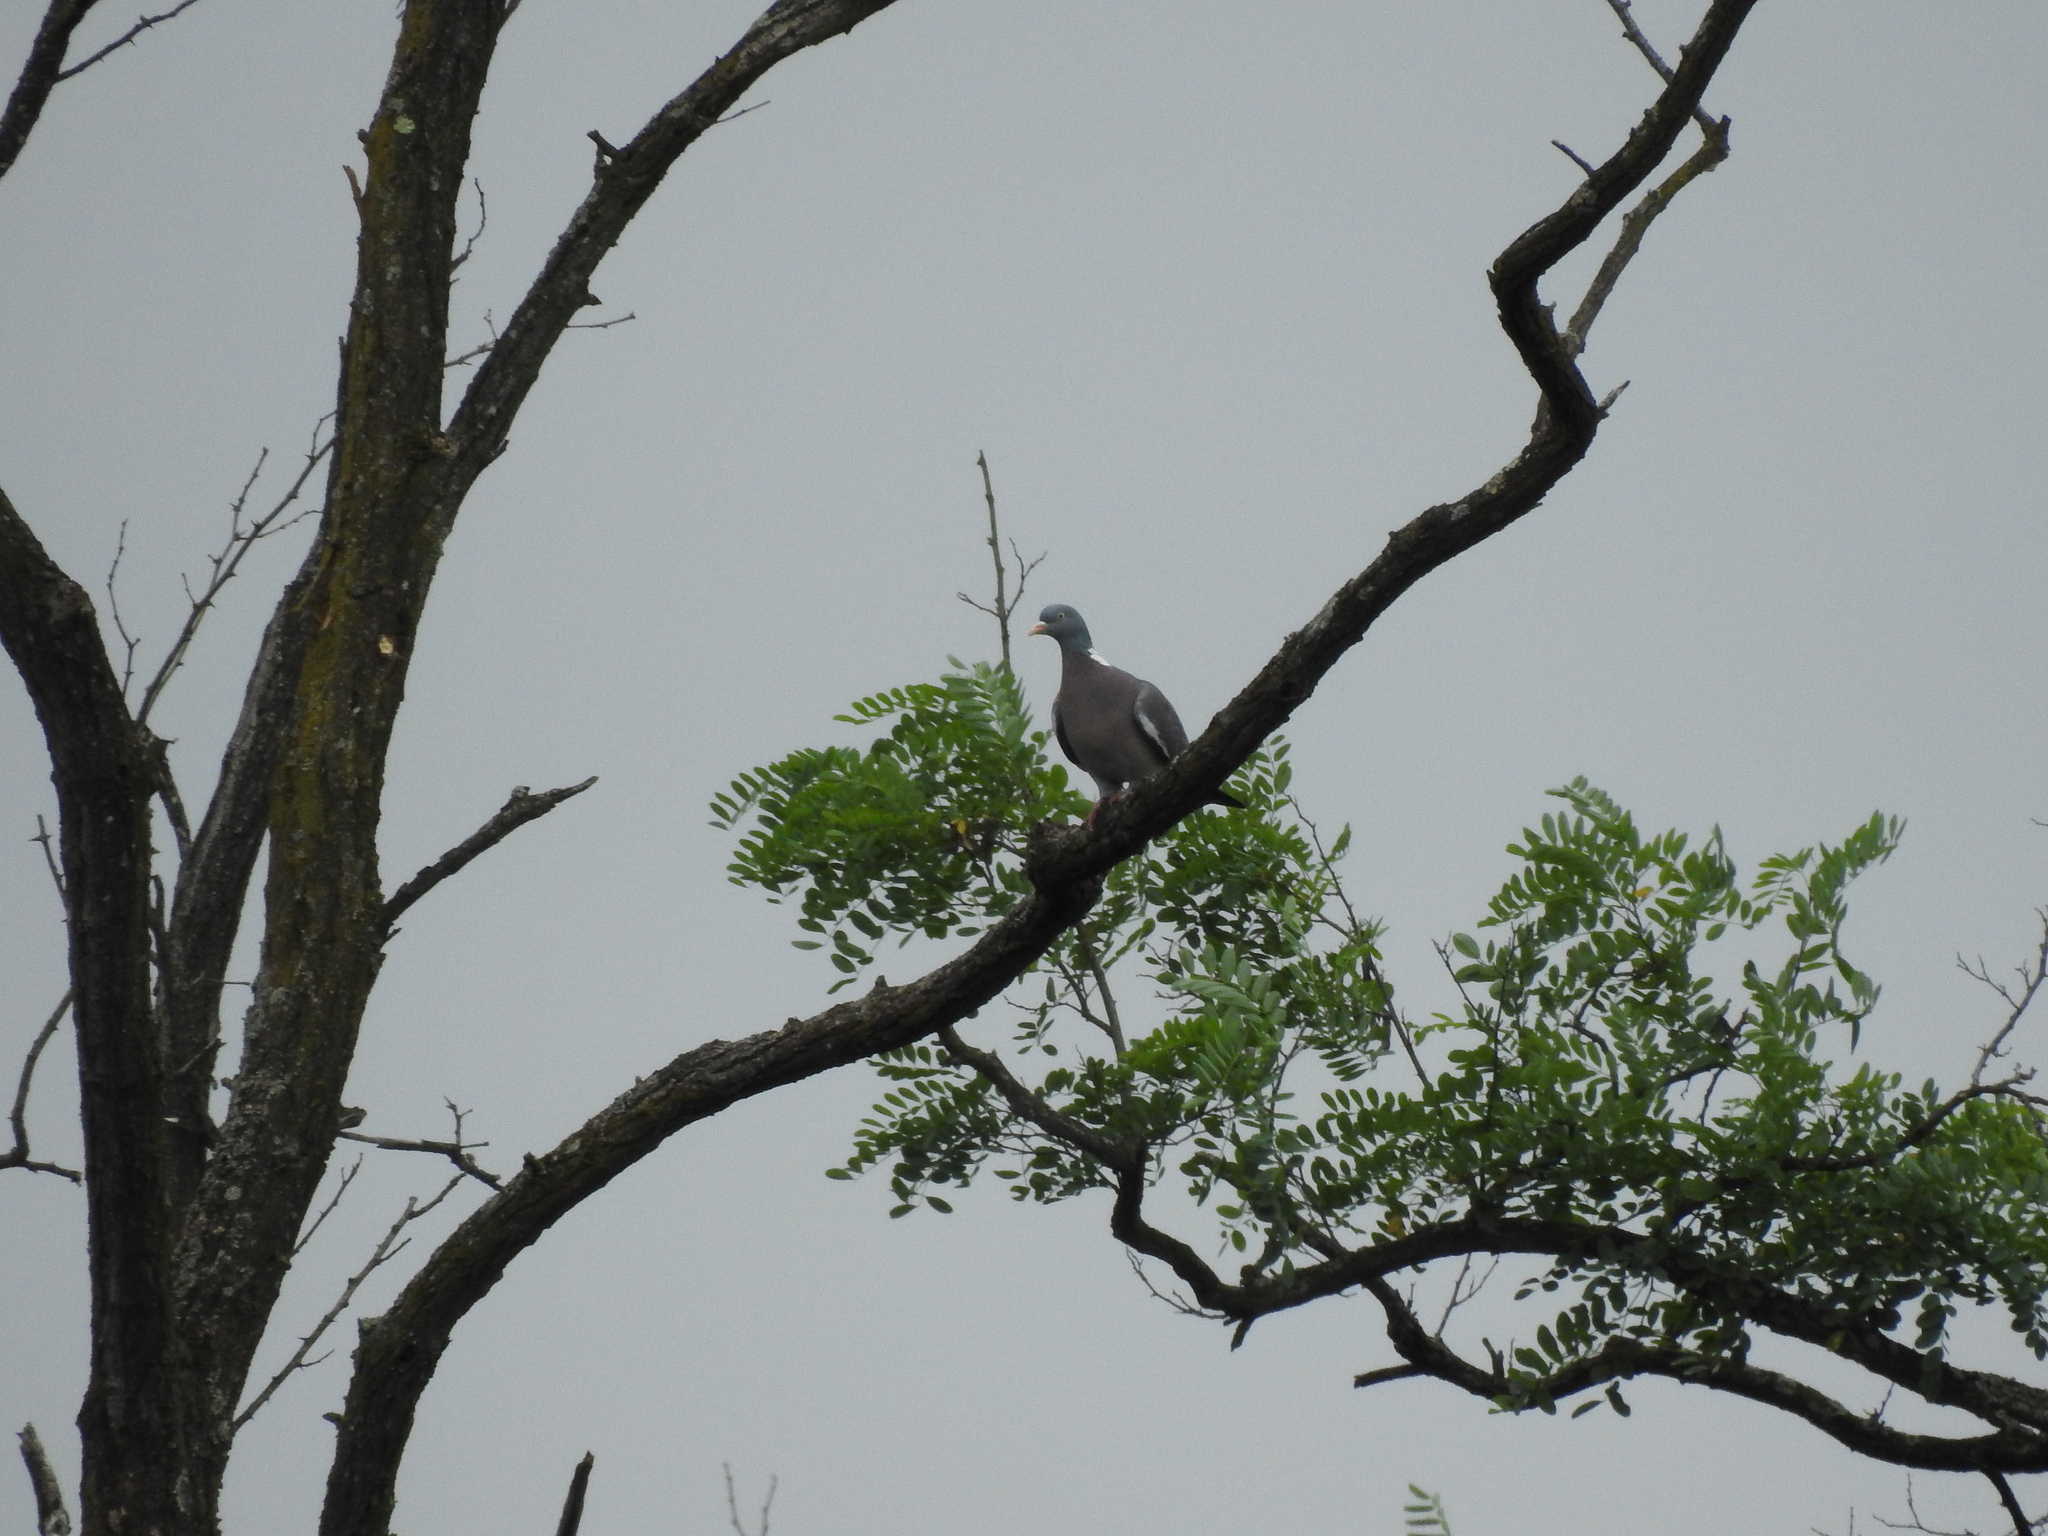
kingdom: Animalia
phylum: Chordata
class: Aves
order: Columbiformes
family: Columbidae
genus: Columba
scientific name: Columba palumbus
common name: Common wood pigeon
